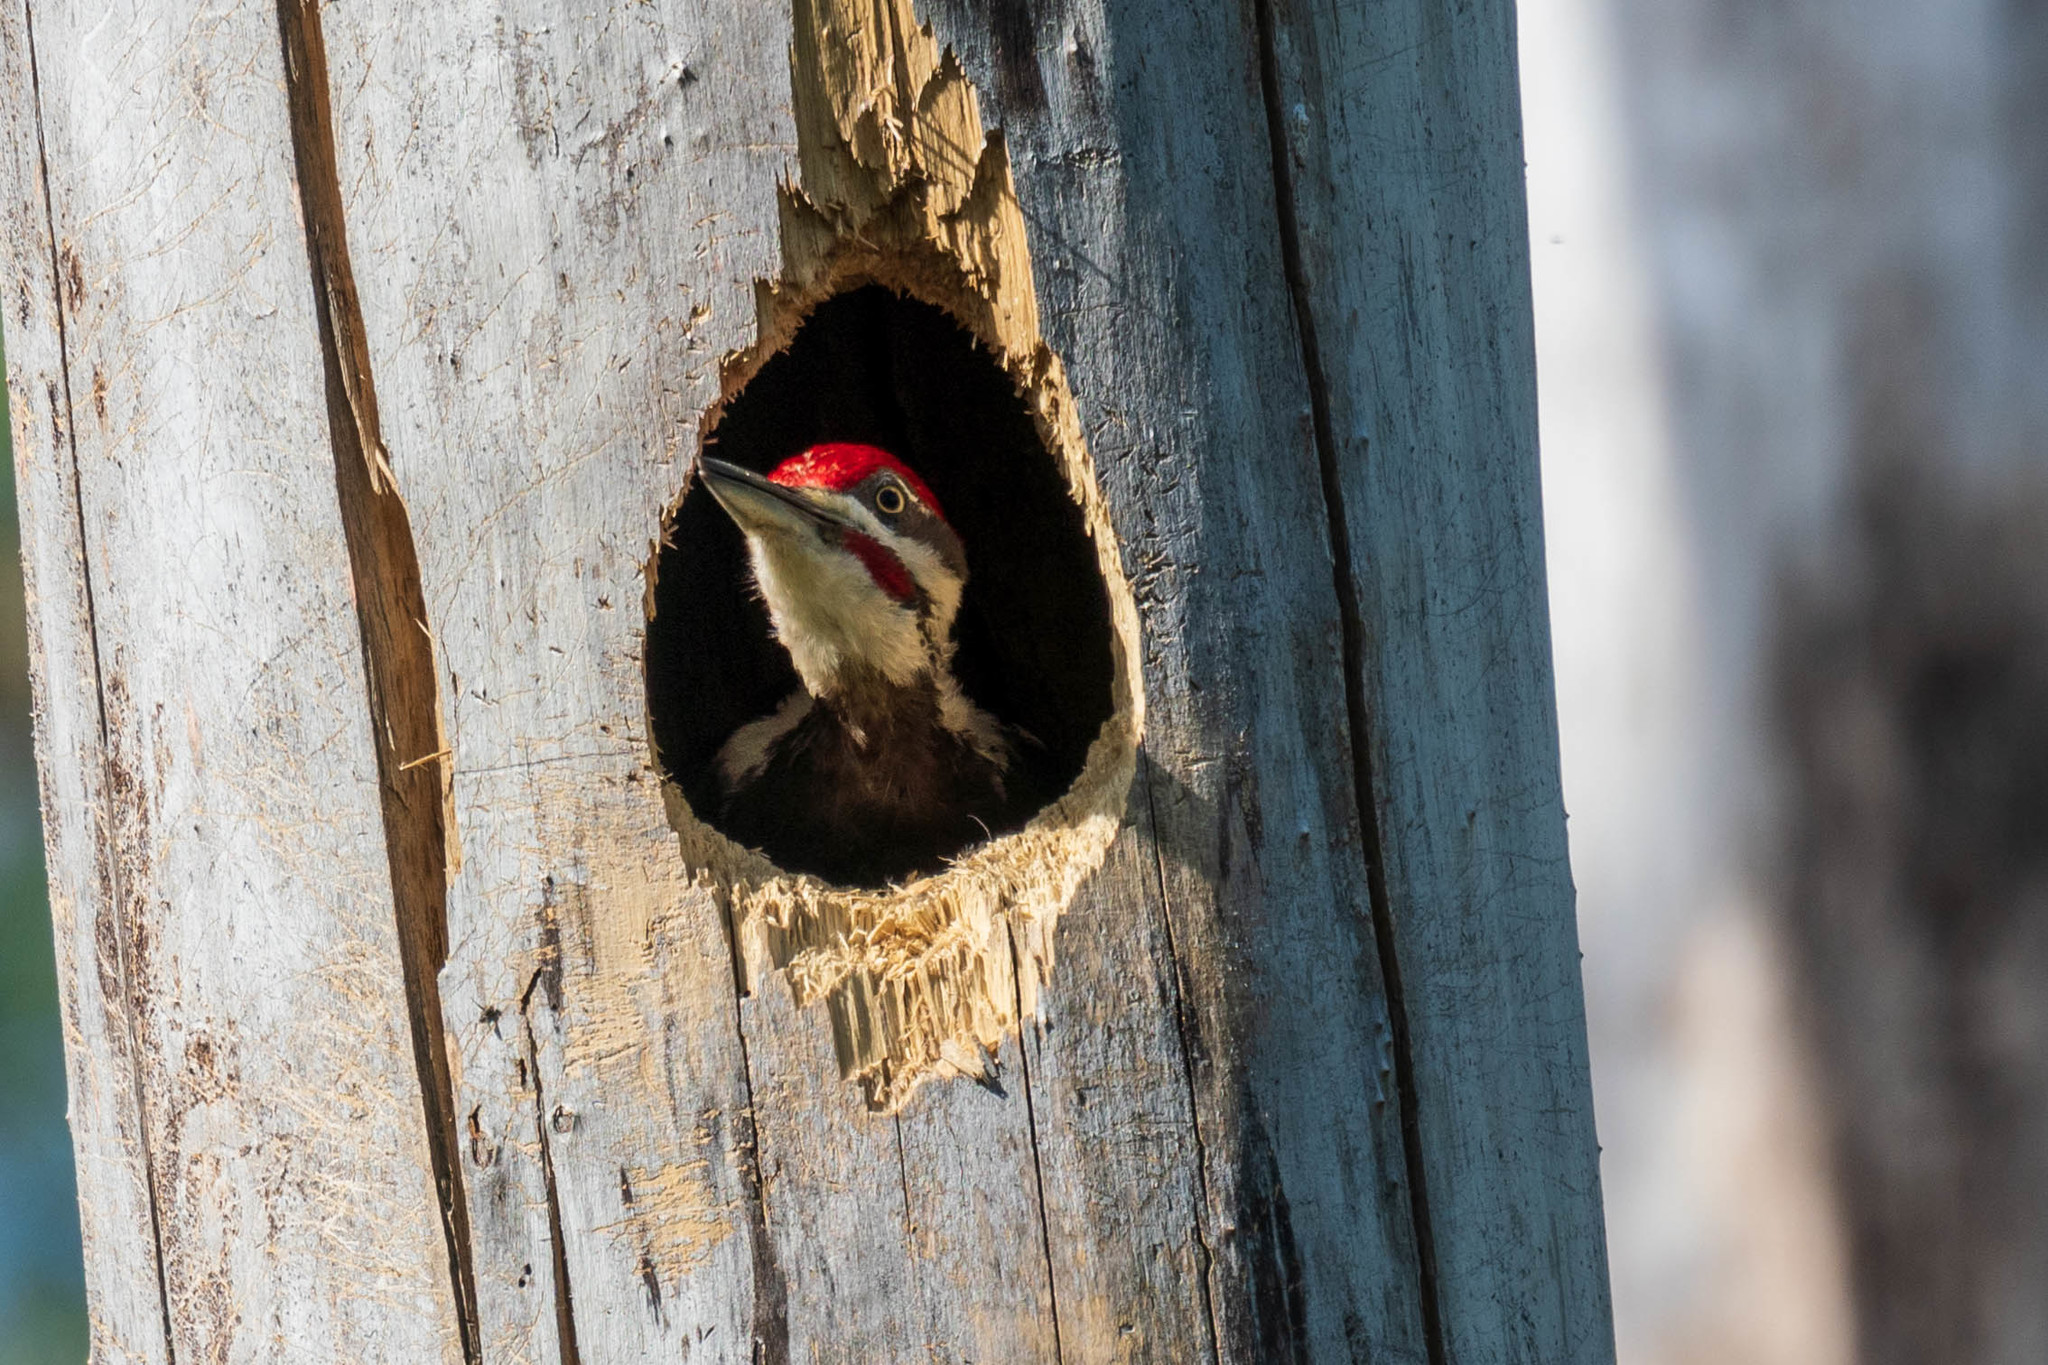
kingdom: Animalia
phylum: Chordata
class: Aves
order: Piciformes
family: Picidae
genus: Dryocopus
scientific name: Dryocopus pileatus
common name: Pileated woodpecker
